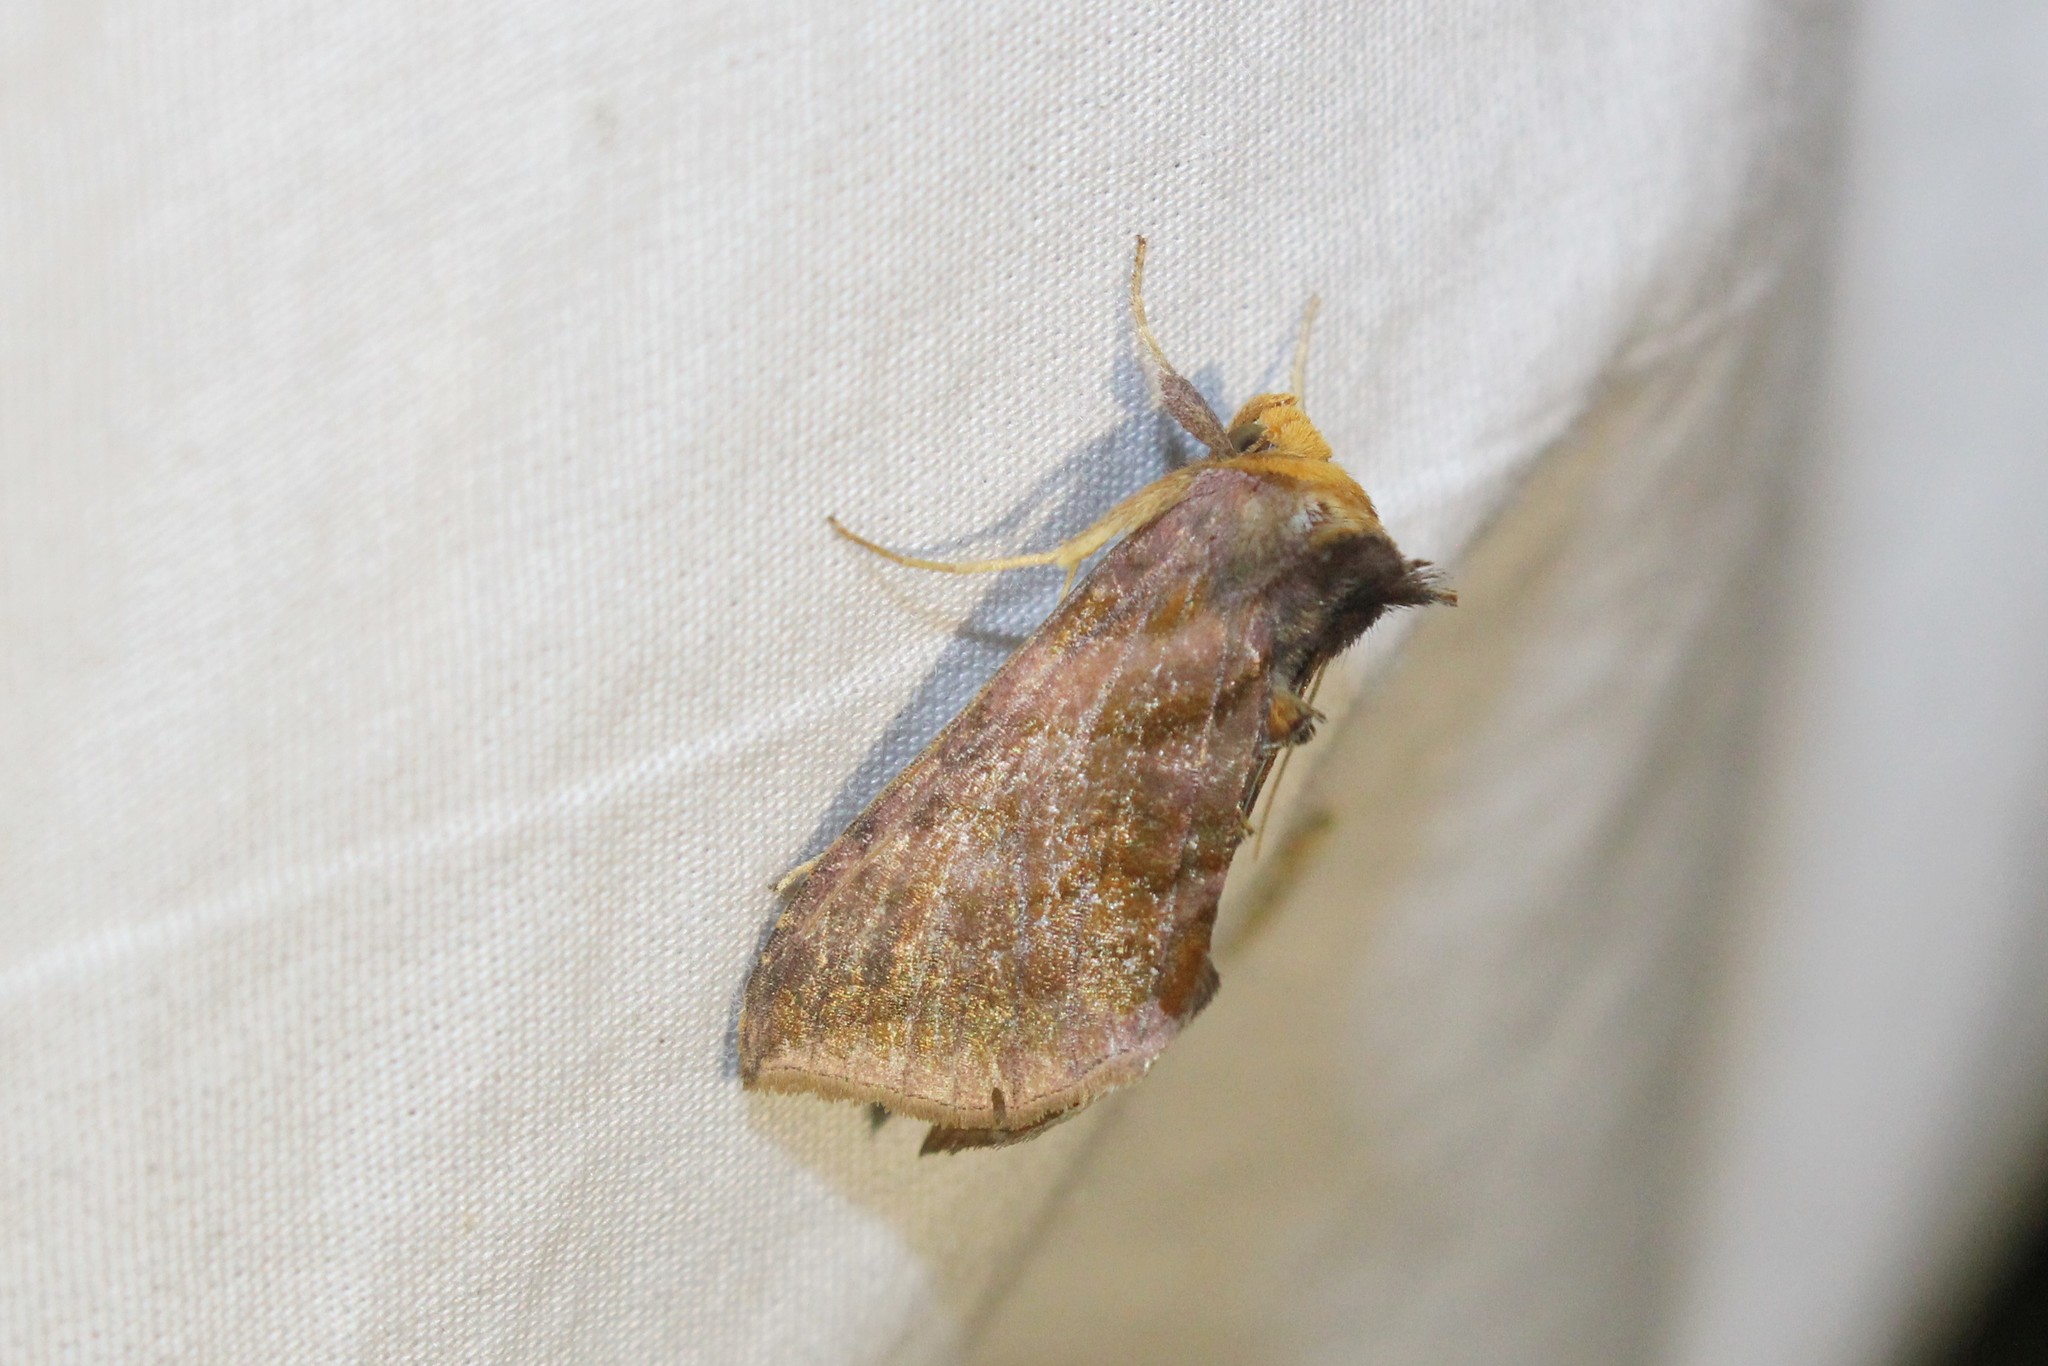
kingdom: Animalia
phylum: Arthropoda
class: Insecta
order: Lepidoptera
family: Noctuidae
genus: Allagrapha
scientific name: Allagrapha aerea
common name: Unspotted looper moth
